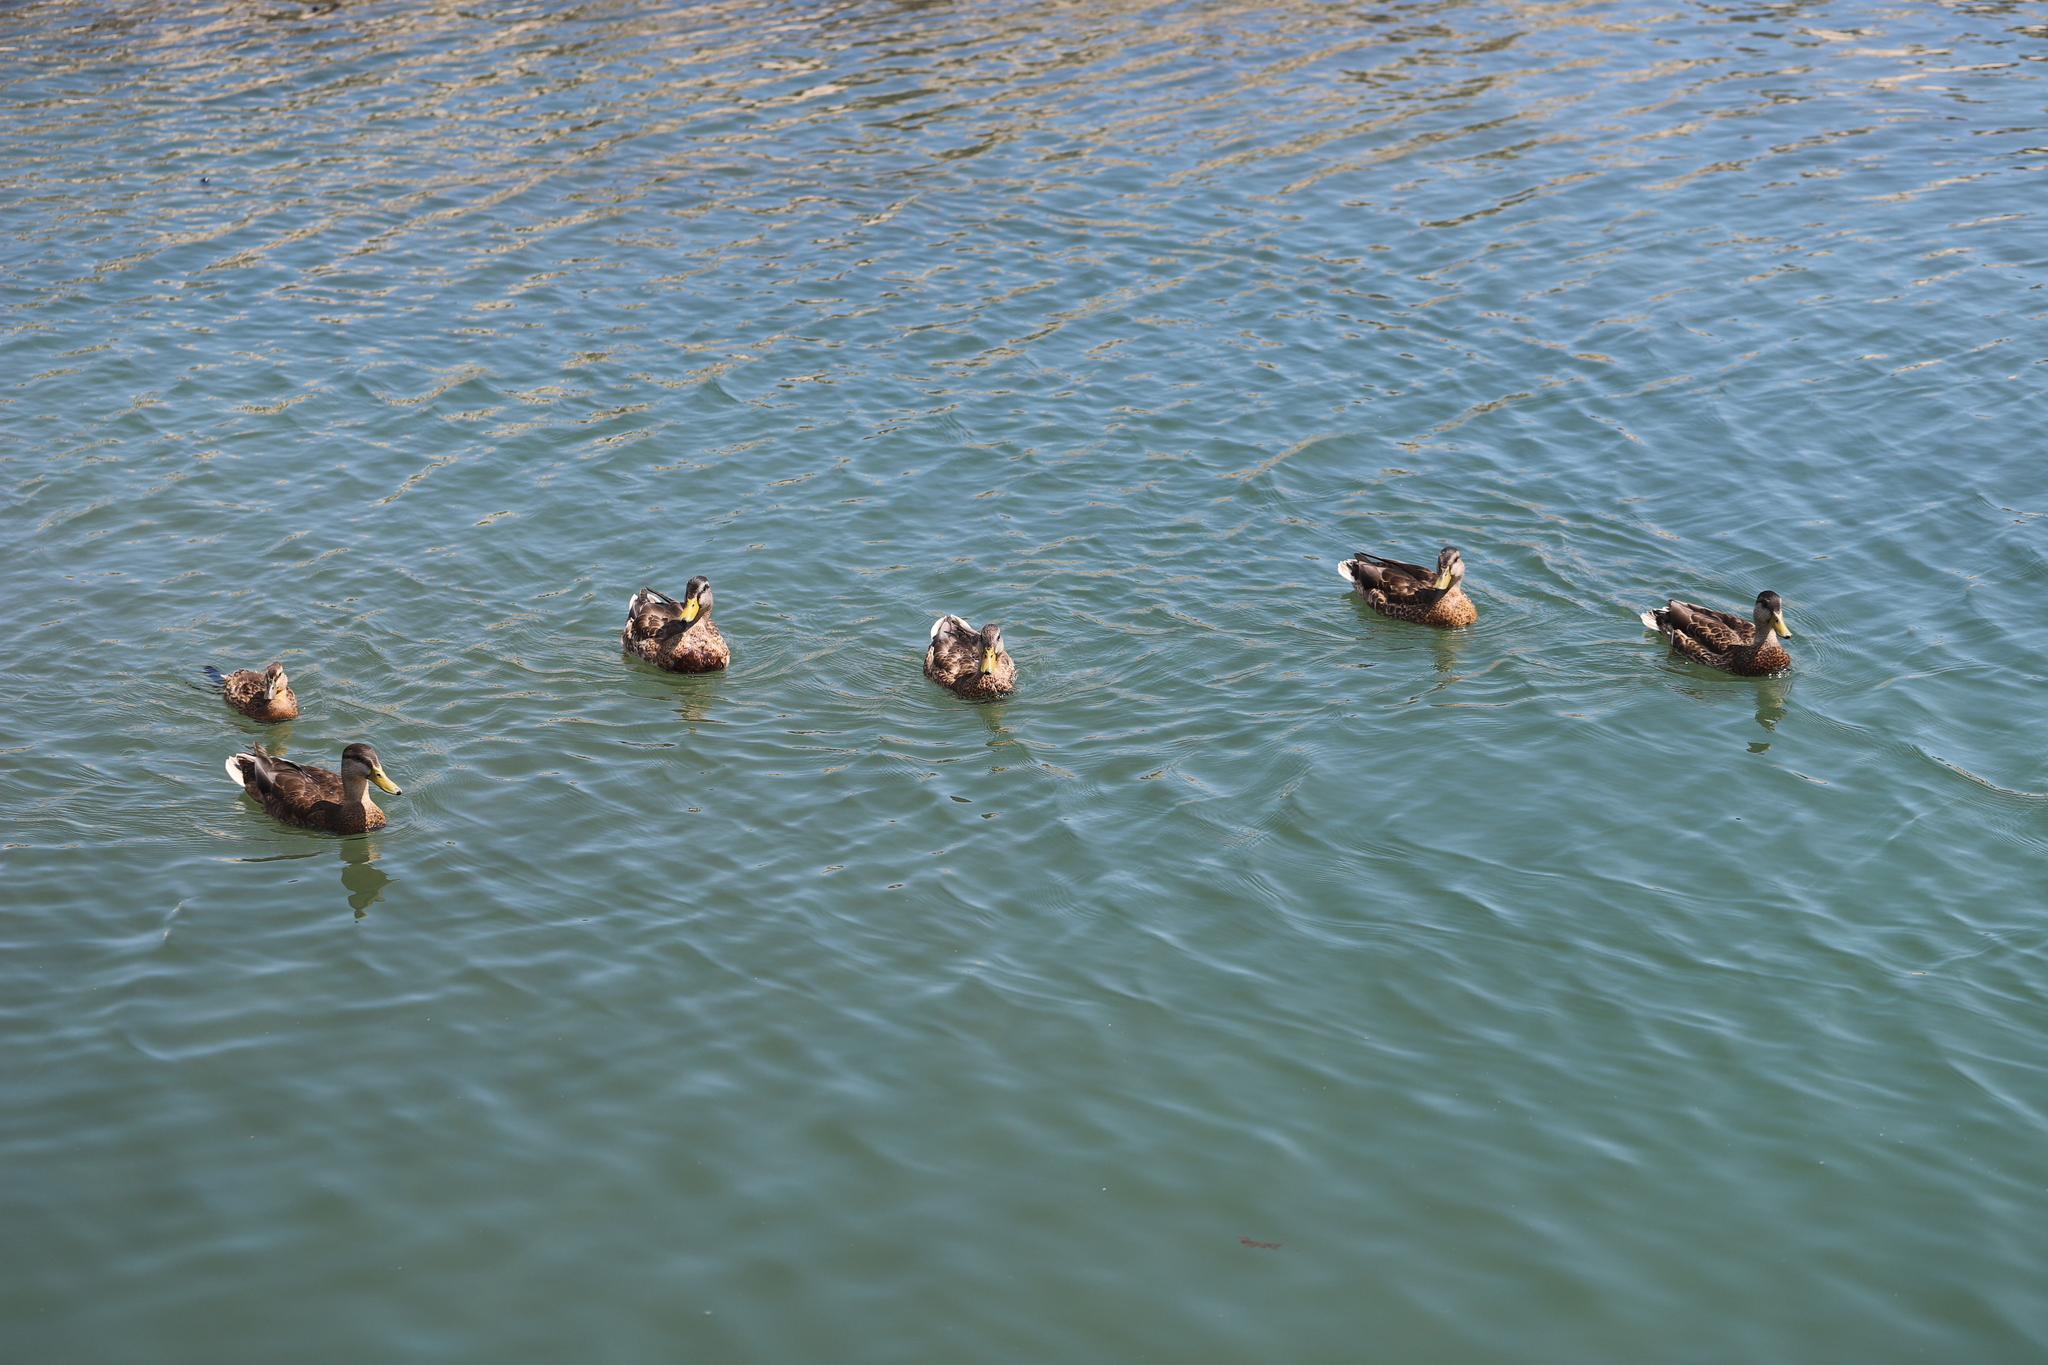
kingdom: Animalia
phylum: Chordata
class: Aves
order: Anseriformes
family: Anatidae
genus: Anas
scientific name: Anas platyrhynchos
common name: Mallard
